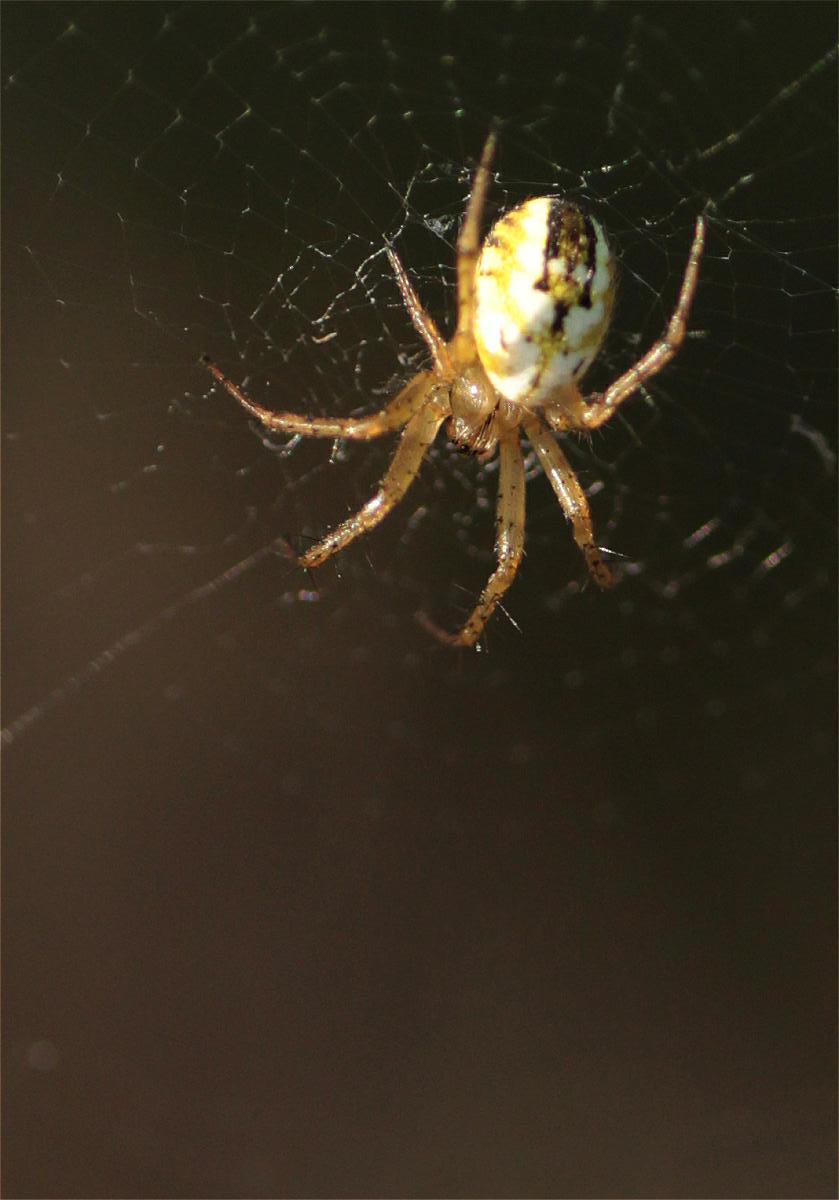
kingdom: Animalia
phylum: Arthropoda
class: Arachnida
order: Araneae
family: Araneidae
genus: Mangora
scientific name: Mangora acalypha
